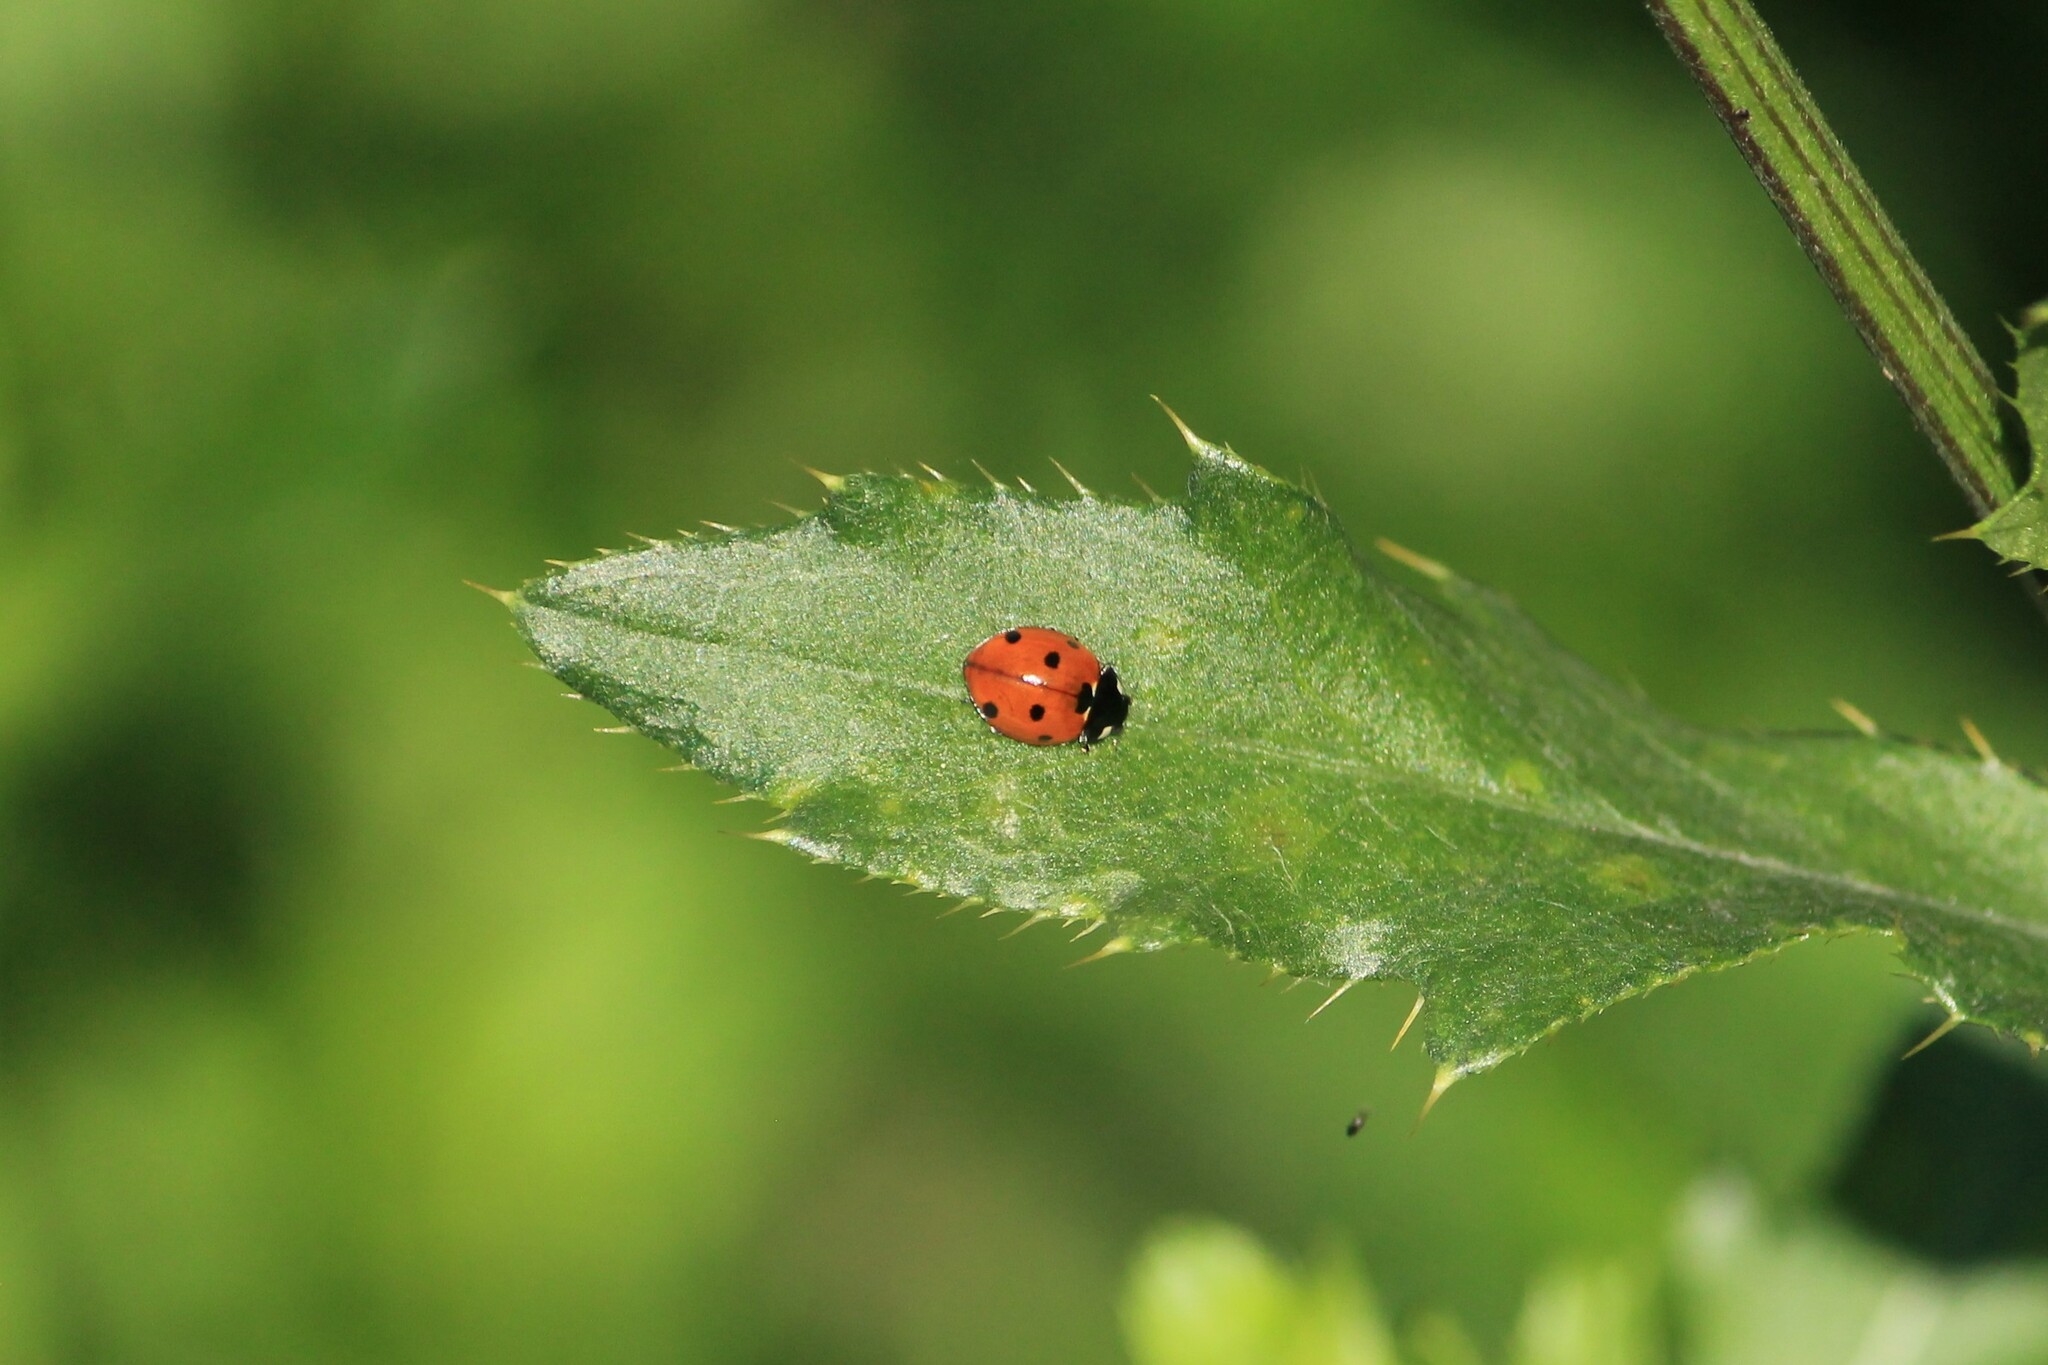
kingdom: Animalia
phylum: Arthropoda
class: Insecta
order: Coleoptera
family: Coccinellidae
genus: Coccinella
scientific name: Coccinella septempunctata
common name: Sevenspotted lady beetle
